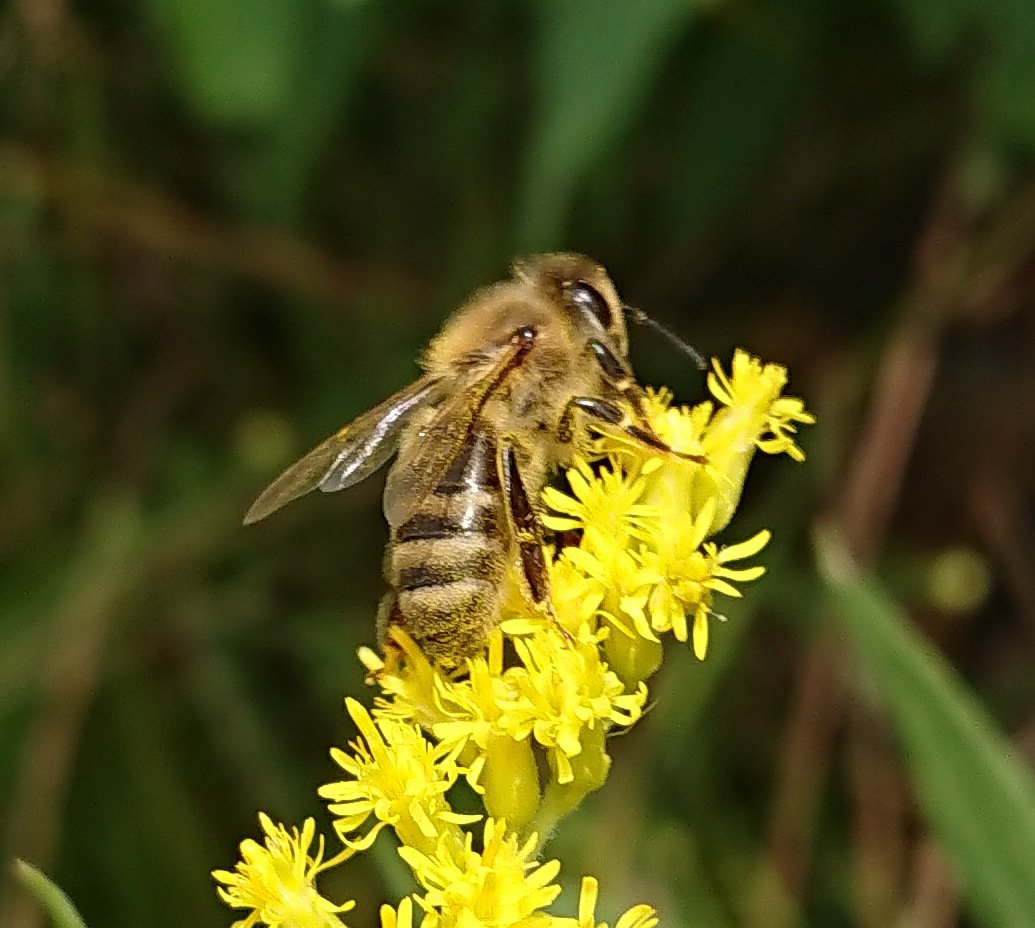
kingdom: Animalia
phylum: Arthropoda
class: Insecta
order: Hymenoptera
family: Apidae
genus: Apis
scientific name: Apis mellifera
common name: Honey bee
